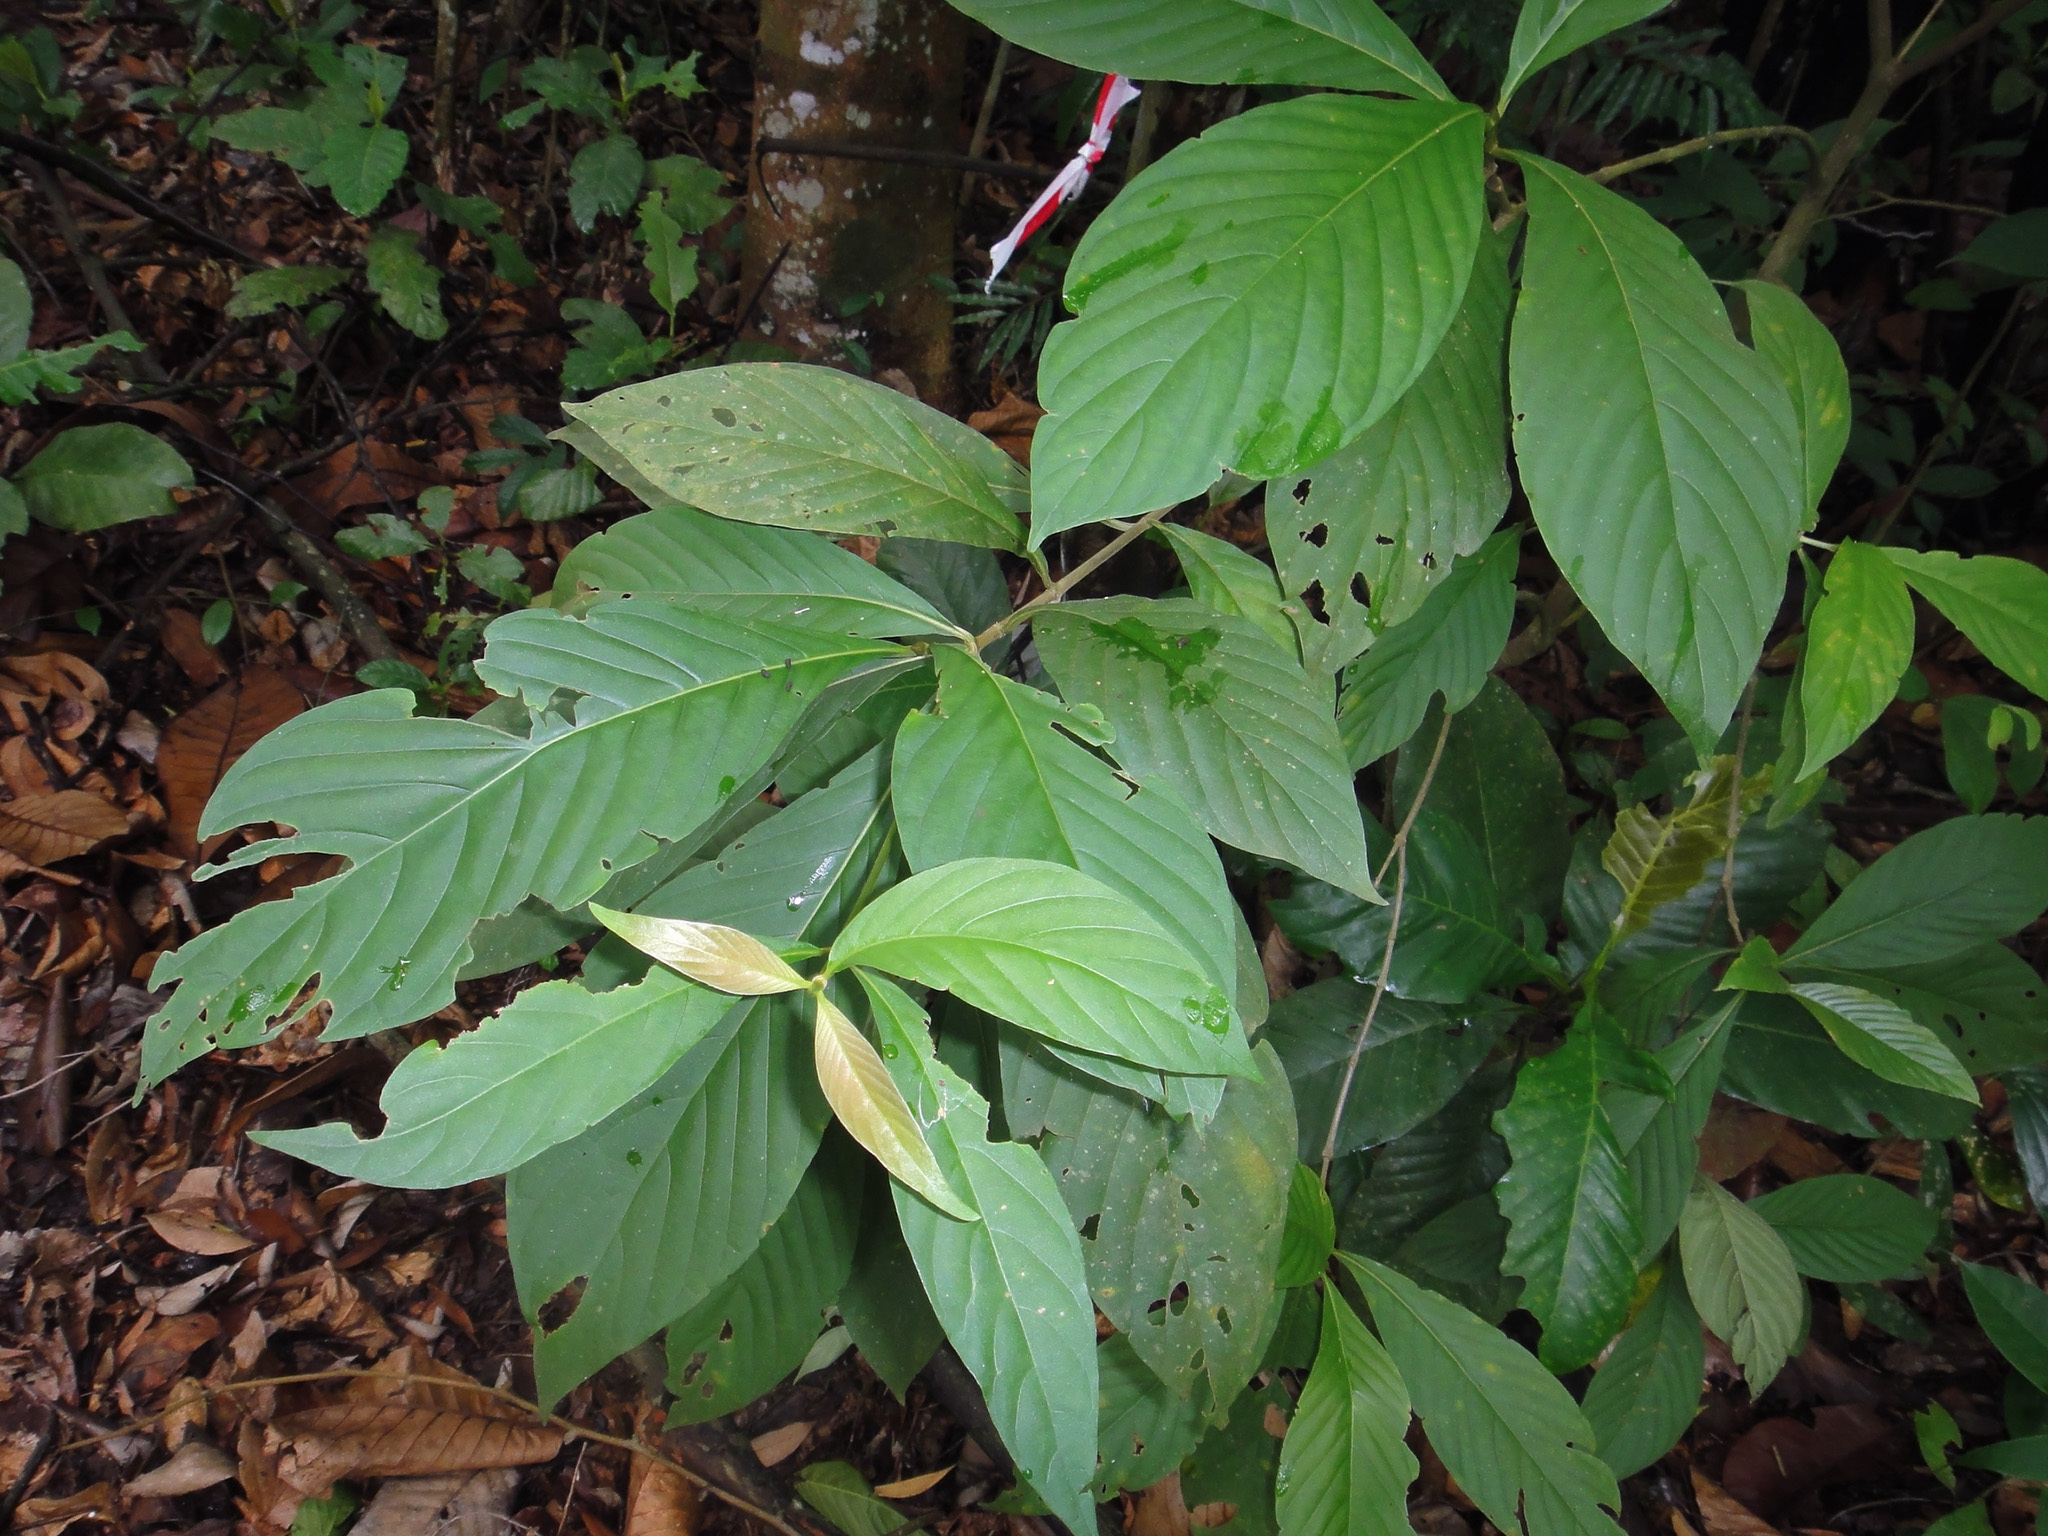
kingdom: Plantae
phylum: Tracheophyta
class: Magnoliopsida
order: Gentianales
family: Rubiaceae
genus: Timonius
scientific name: Timonius wallichianus
